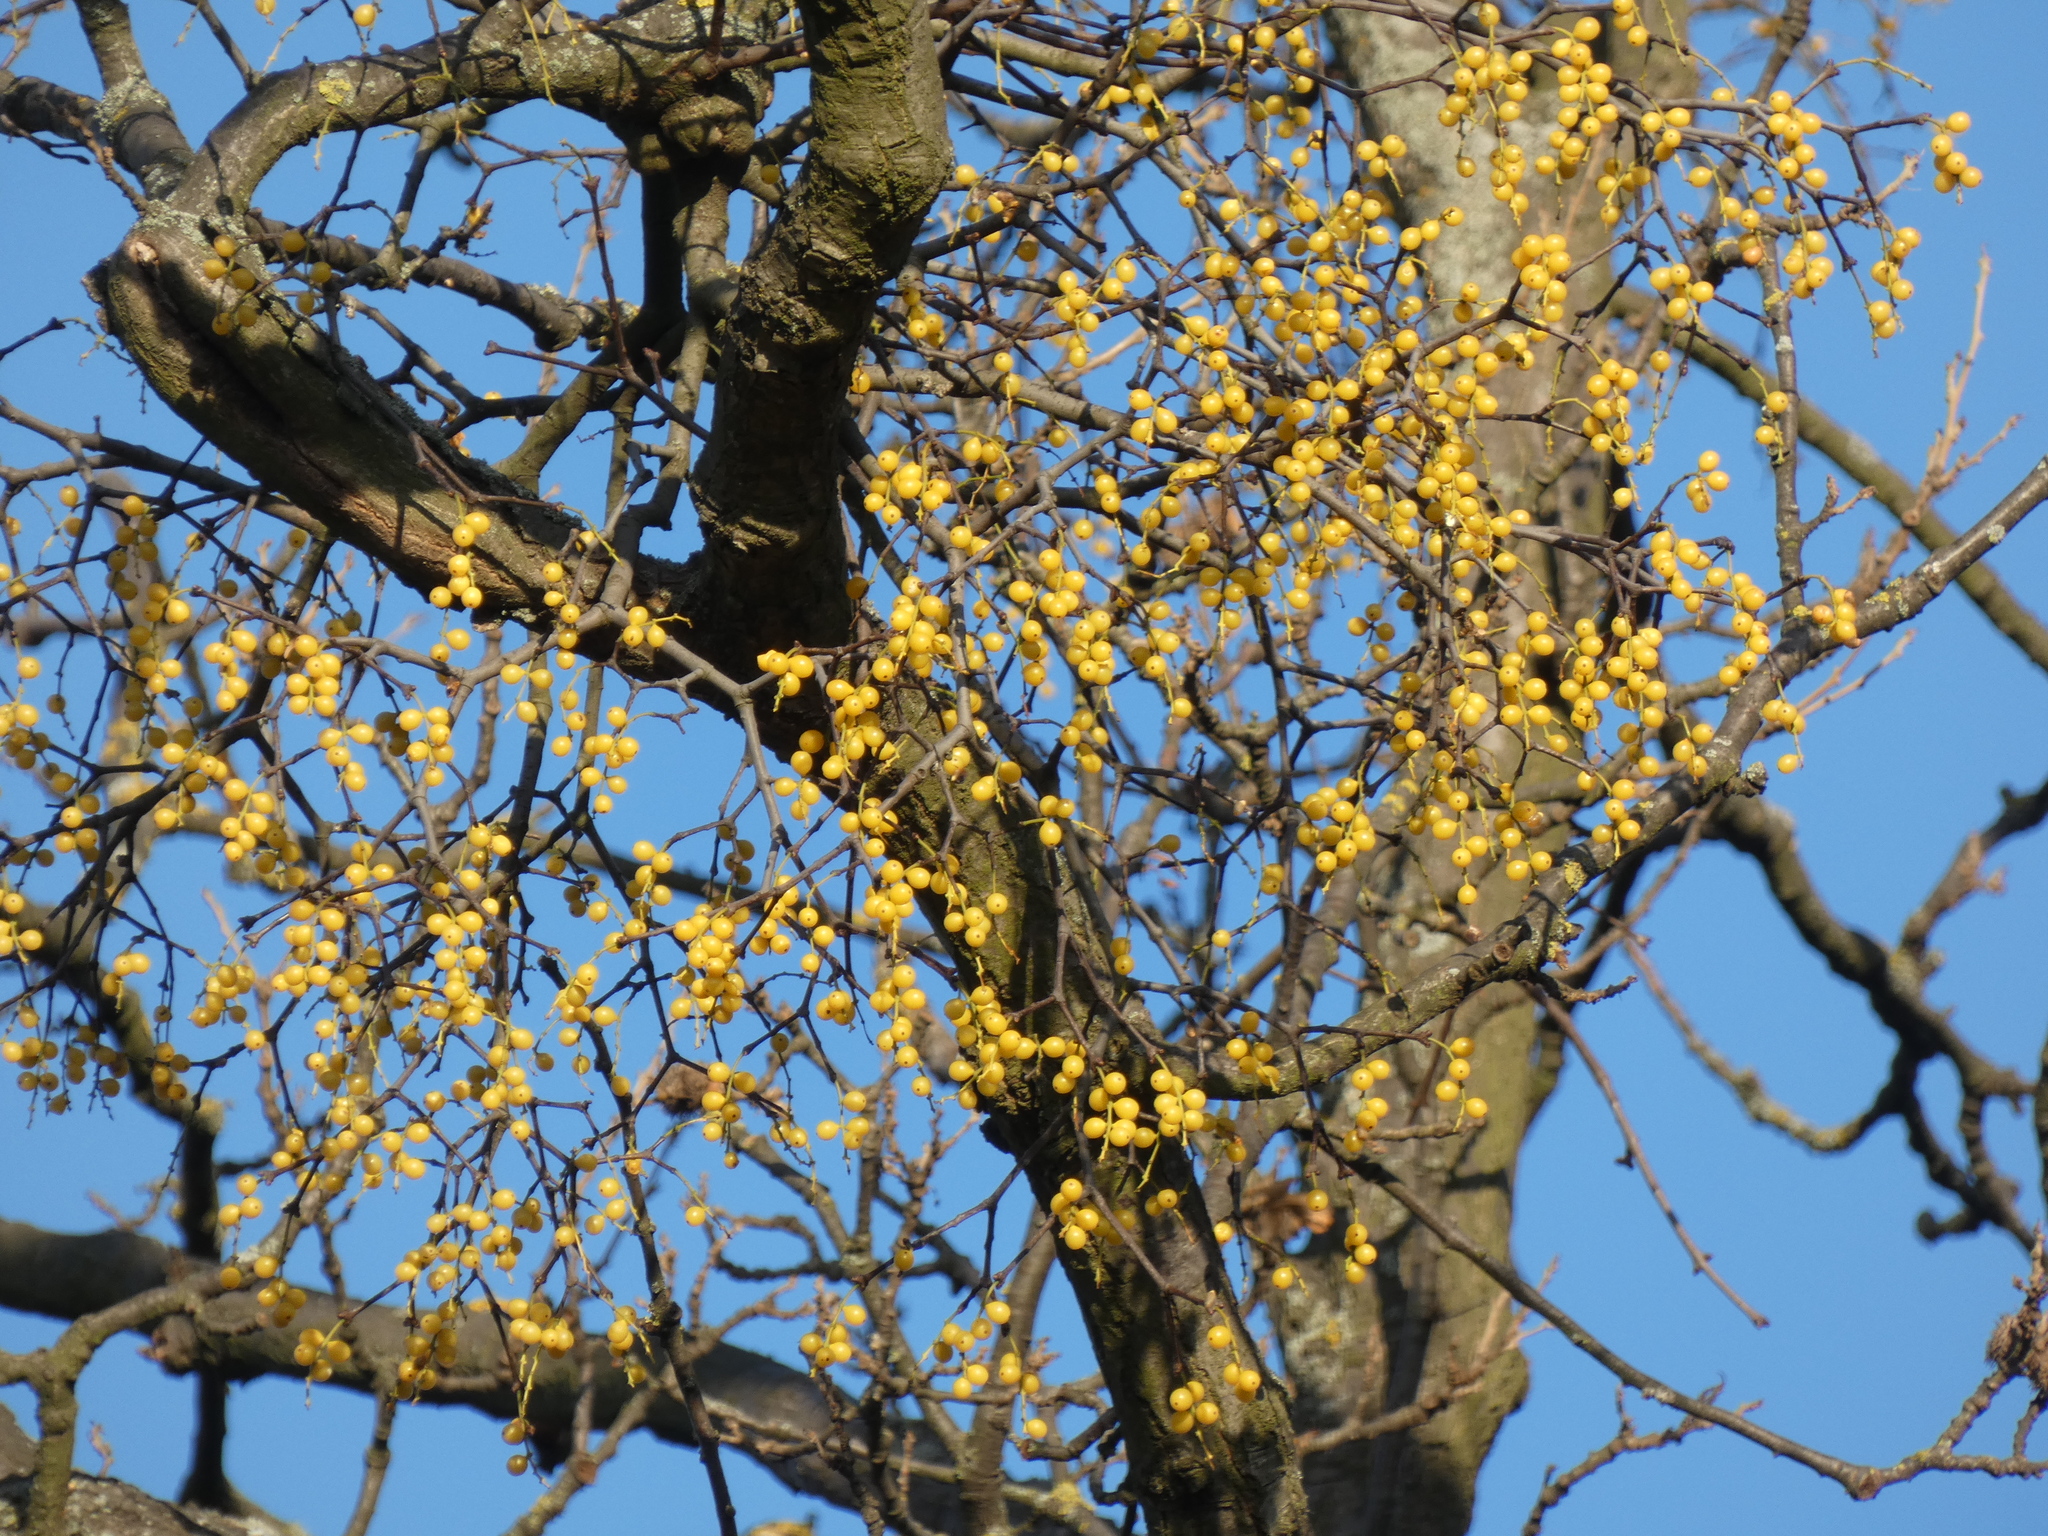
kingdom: Plantae
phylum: Tracheophyta
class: Magnoliopsida
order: Santalales
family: Loranthaceae
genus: Loranthus
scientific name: Loranthus europaeus
